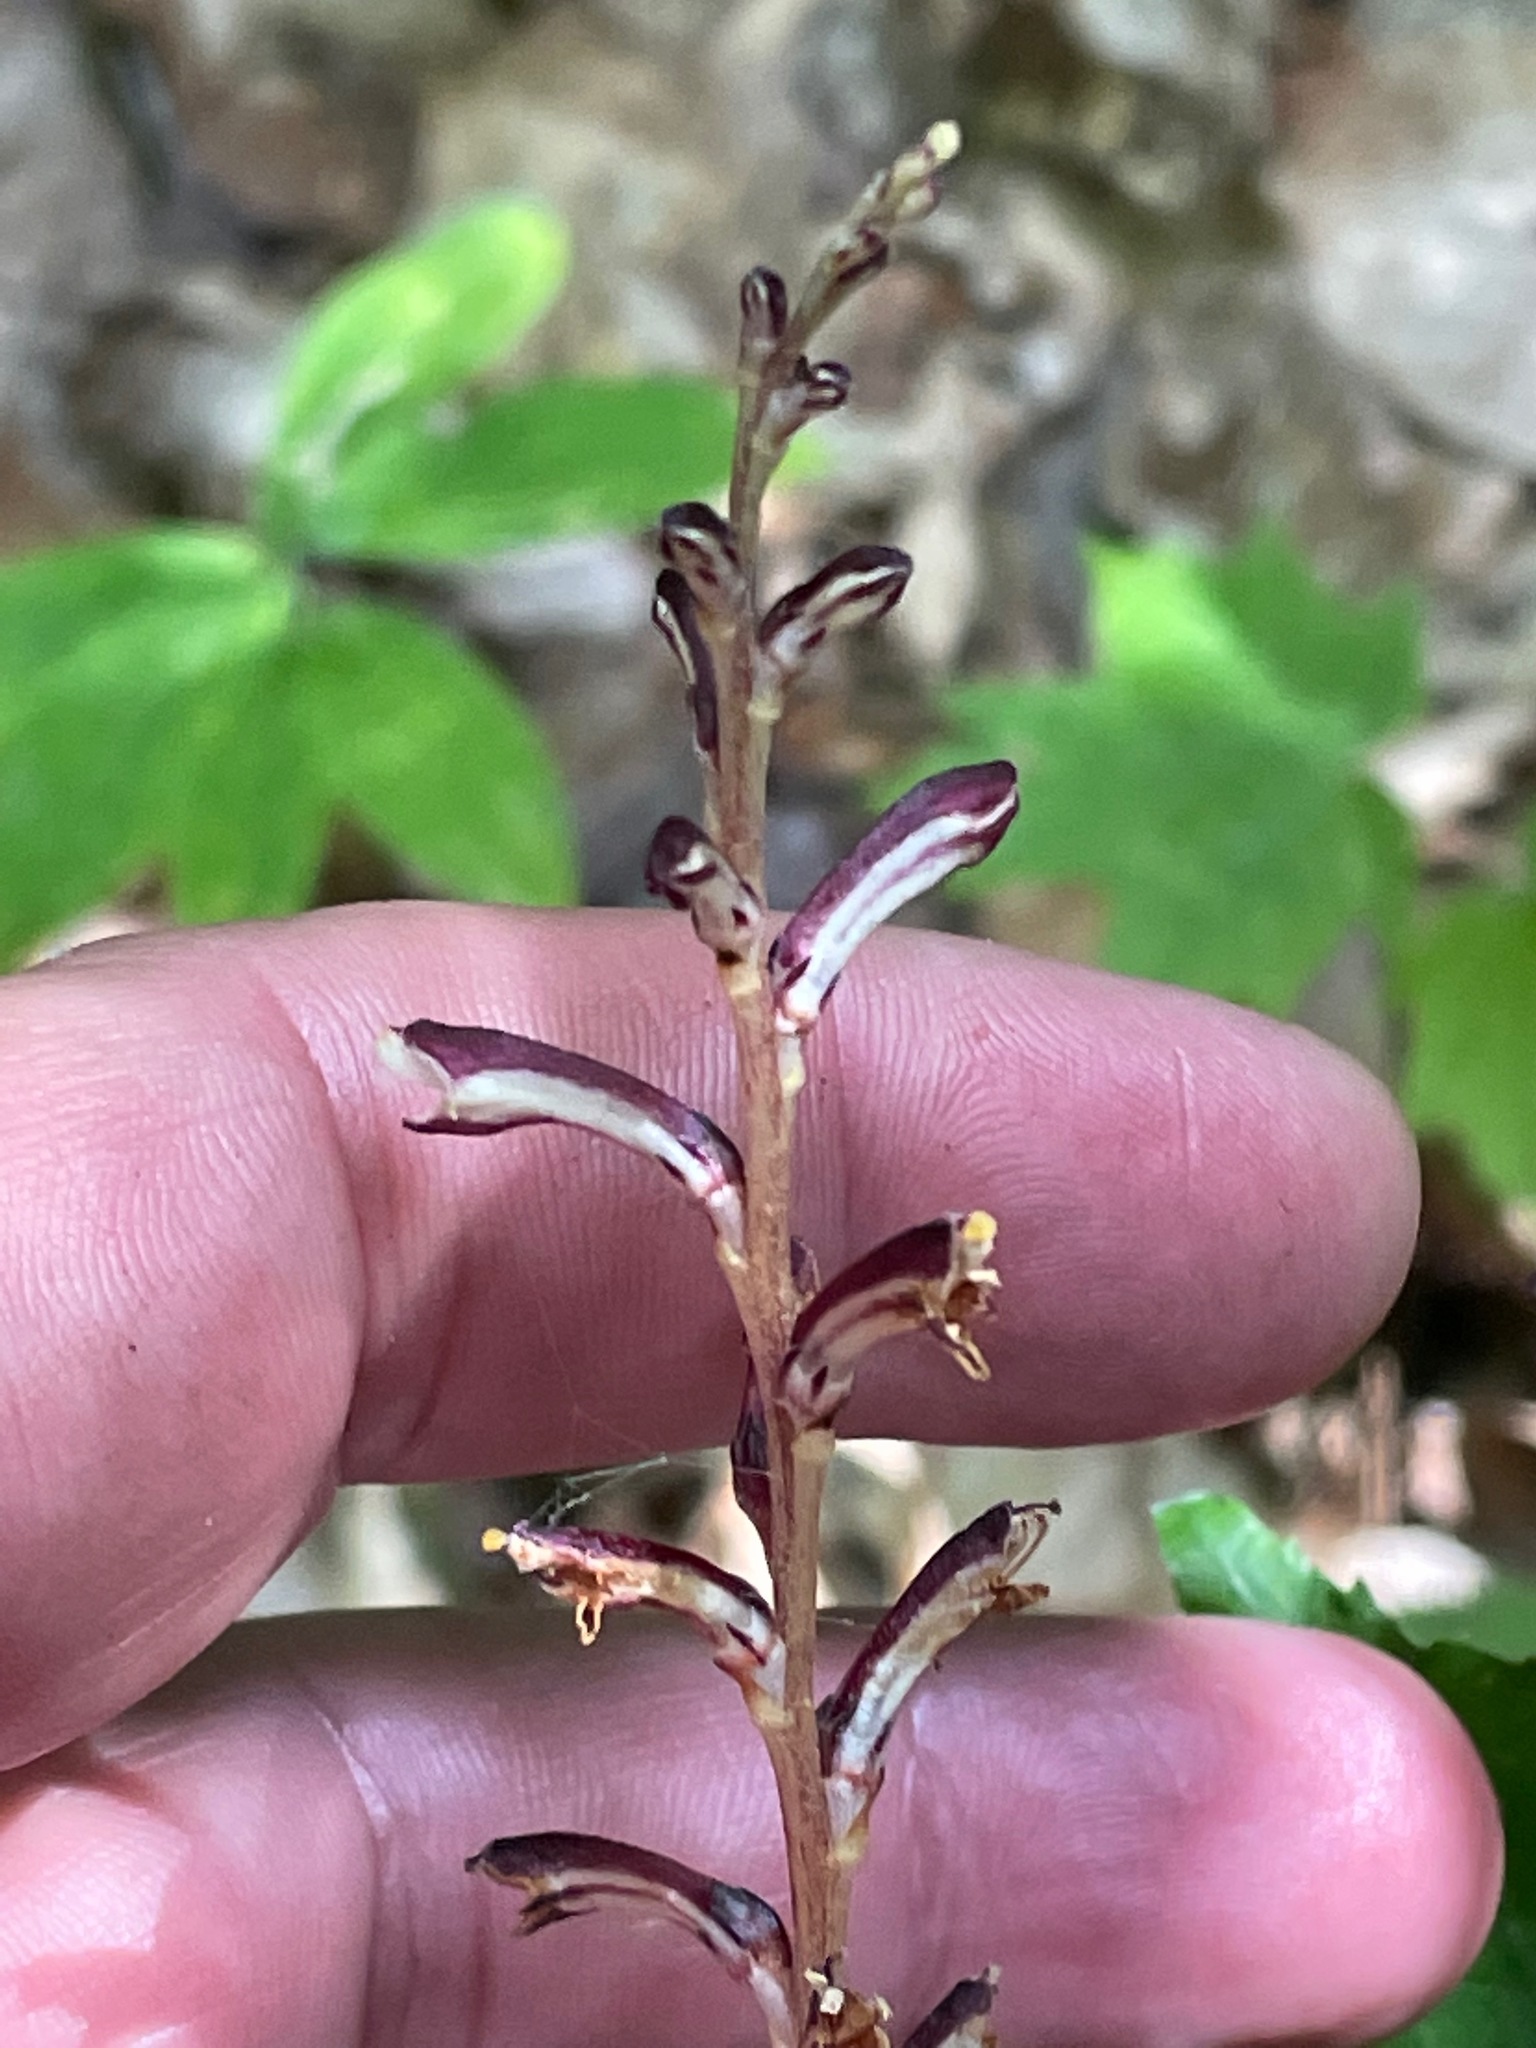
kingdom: Plantae
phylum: Tracheophyta
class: Magnoliopsida
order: Lamiales
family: Orobanchaceae
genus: Epifagus
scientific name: Epifagus virginiana
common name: Beechdrops
